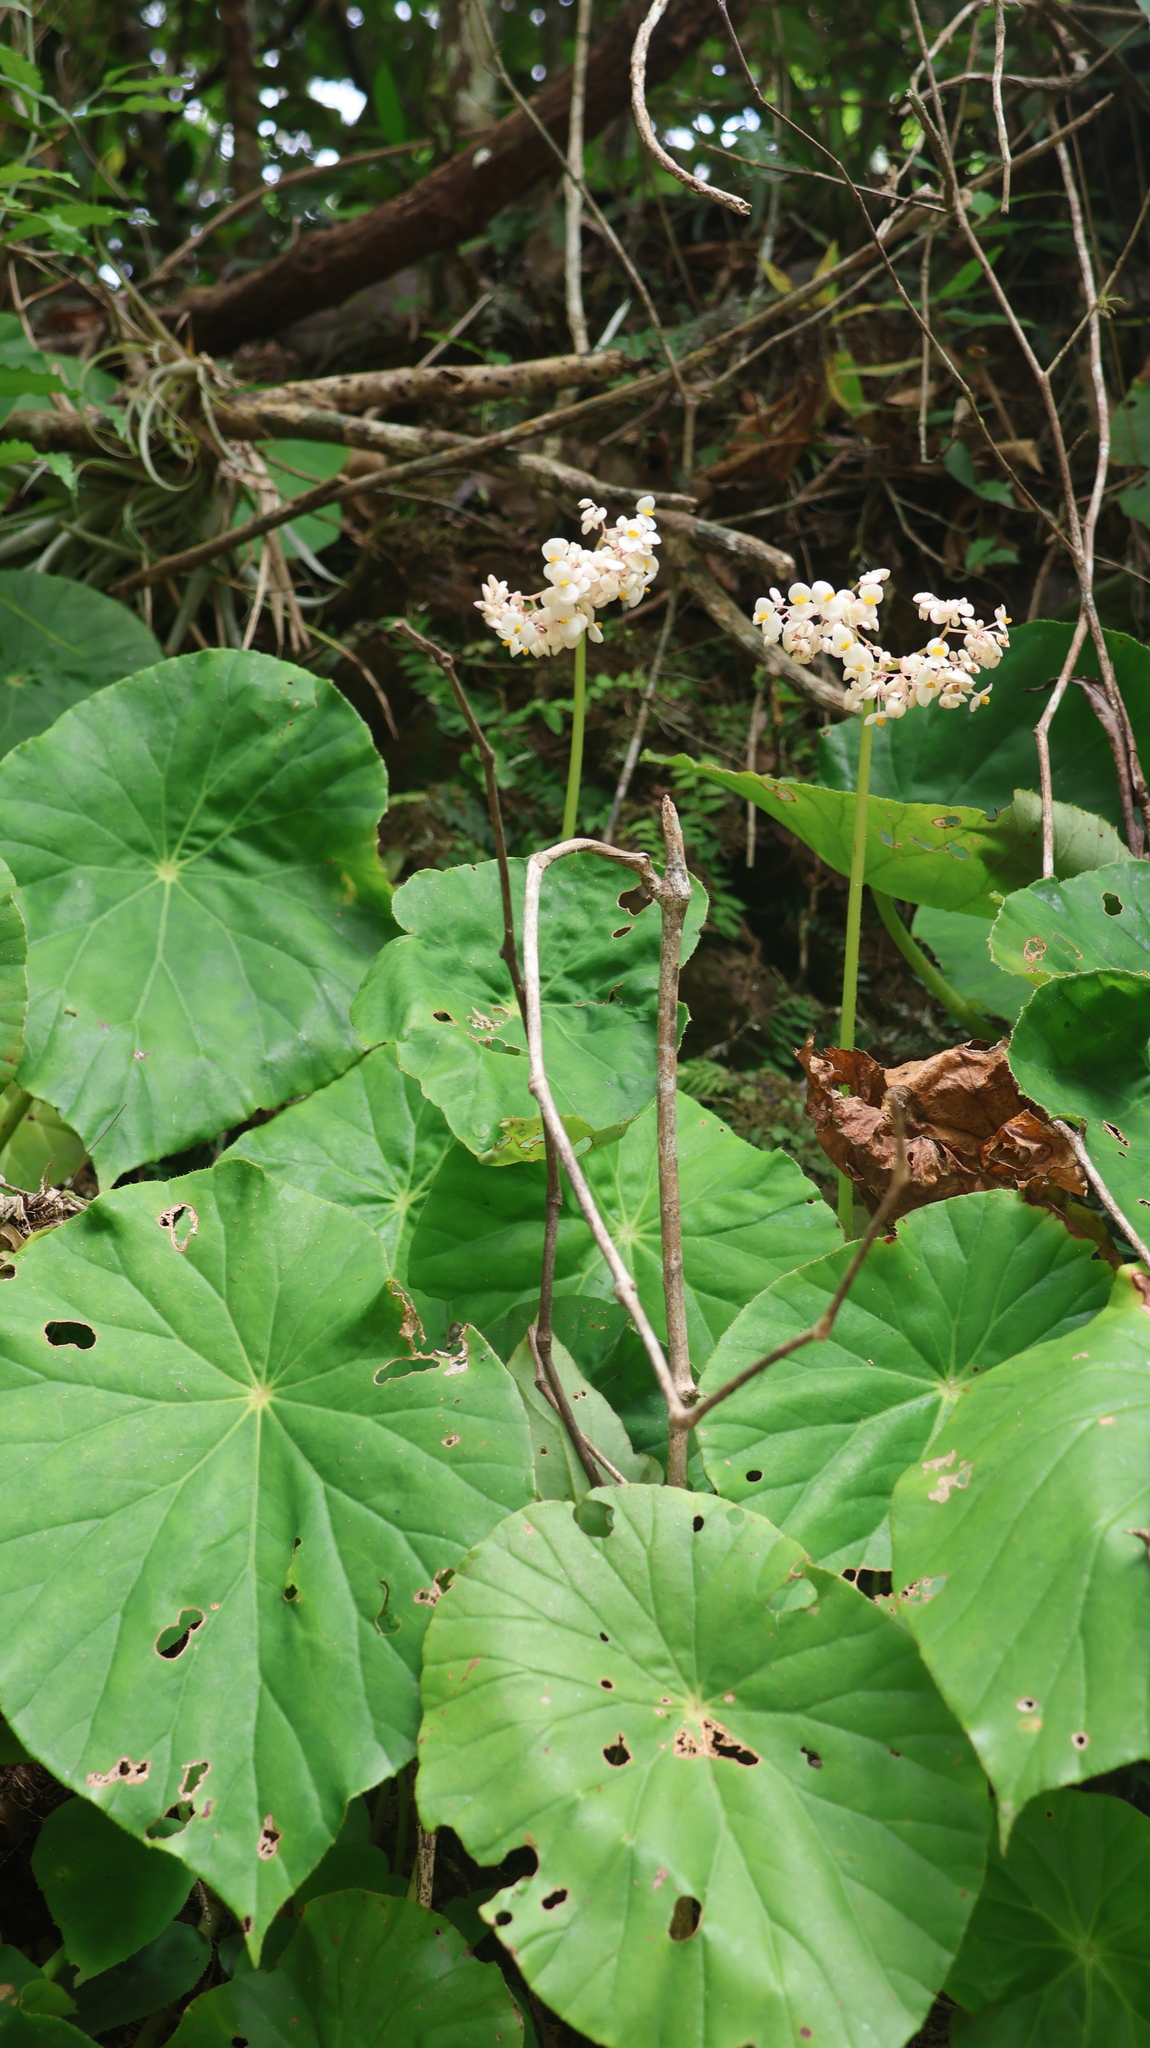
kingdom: Plantae
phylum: Tracheophyta
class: Magnoliopsida
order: Cucurbitales
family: Begoniaceae
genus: Begonia
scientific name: Begonia nelumbiifolia
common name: Lilypad begonia
